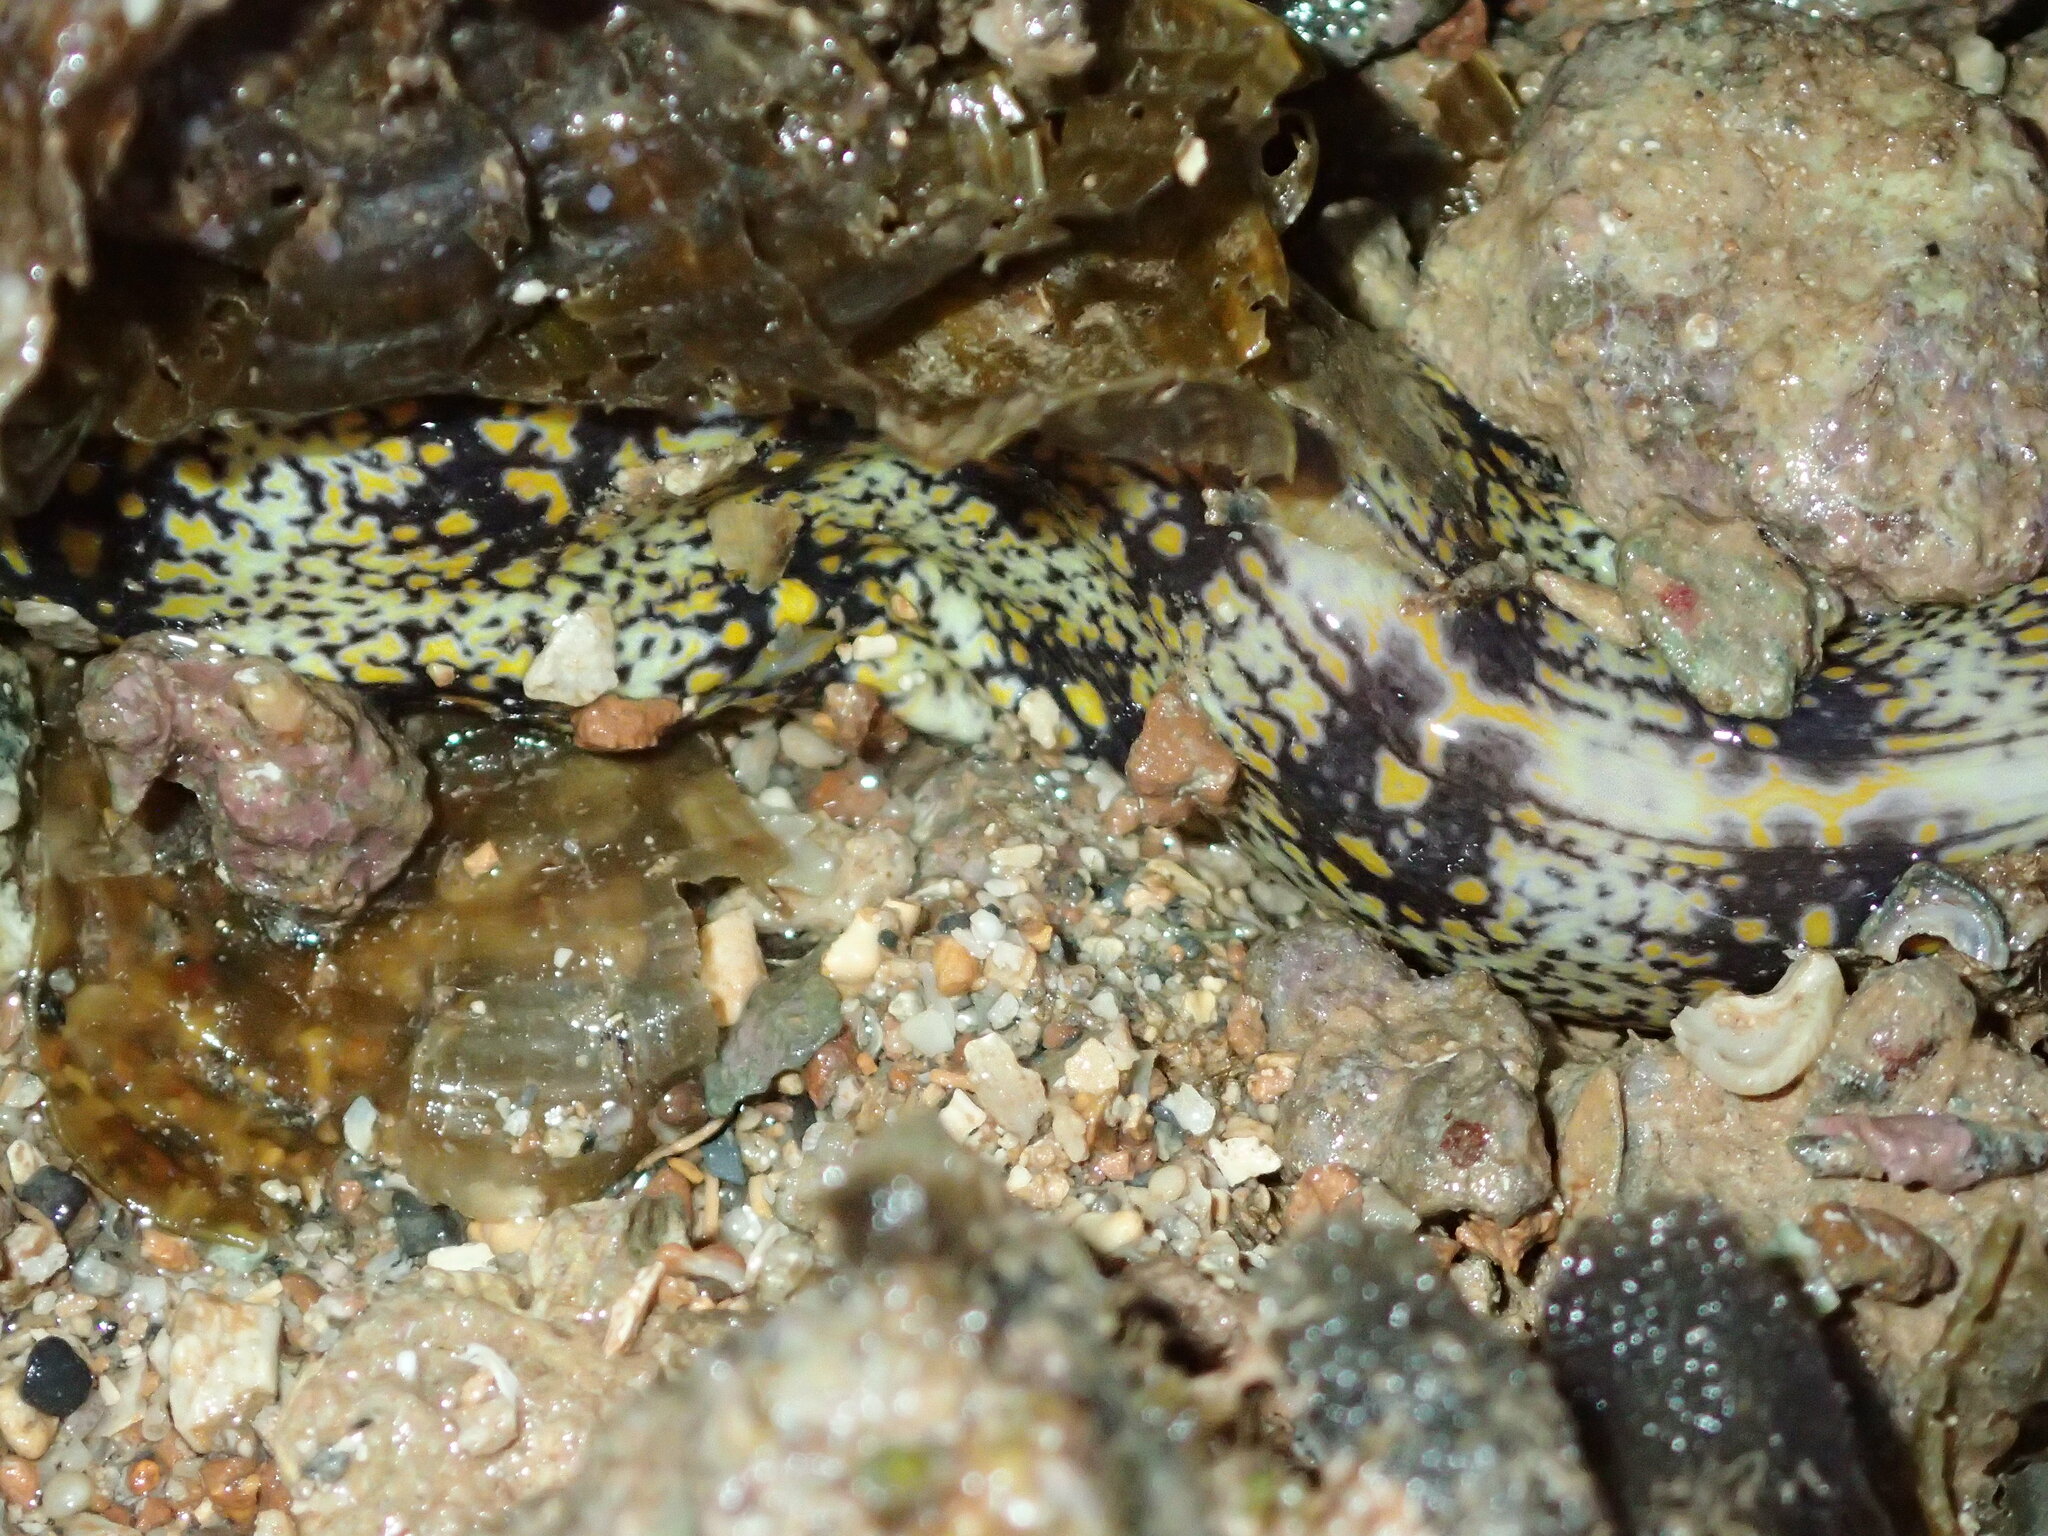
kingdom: Animalia
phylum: Chordata
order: Anguilliformes
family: Muraenidae
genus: Echidna
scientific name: Echidna nebulosa
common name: Snowflake moray
